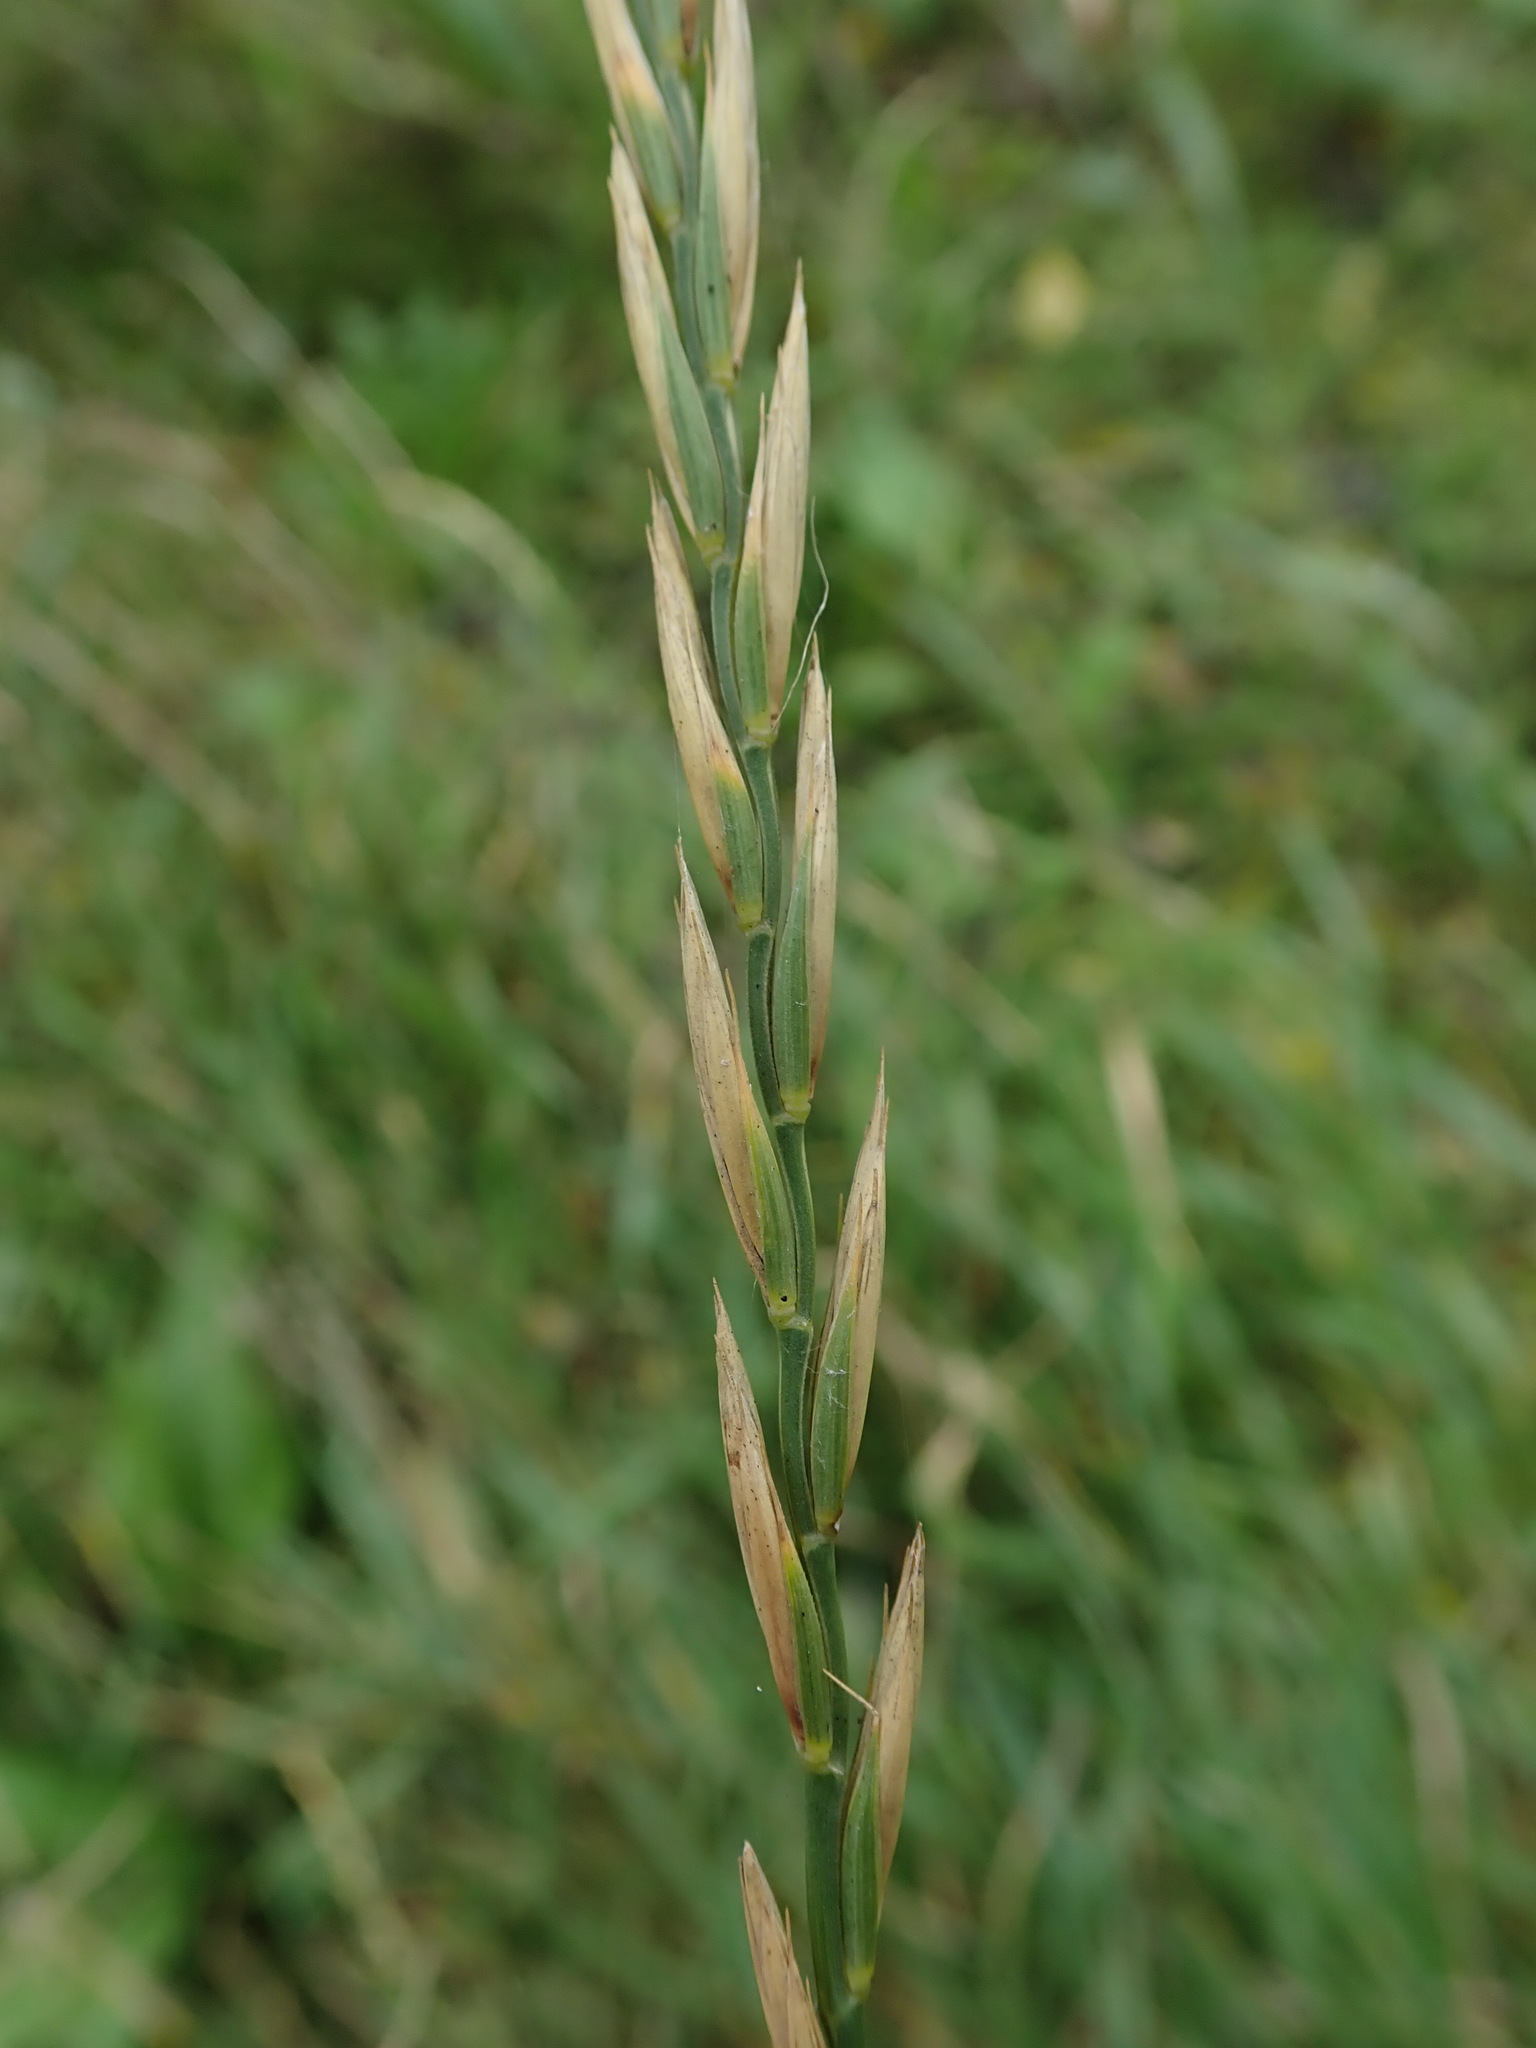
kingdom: Plantae
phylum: Tracheophyta
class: Liliopsida
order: Poales
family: Poaceae
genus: Elymus
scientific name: Elymus repens
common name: Quackgrass
